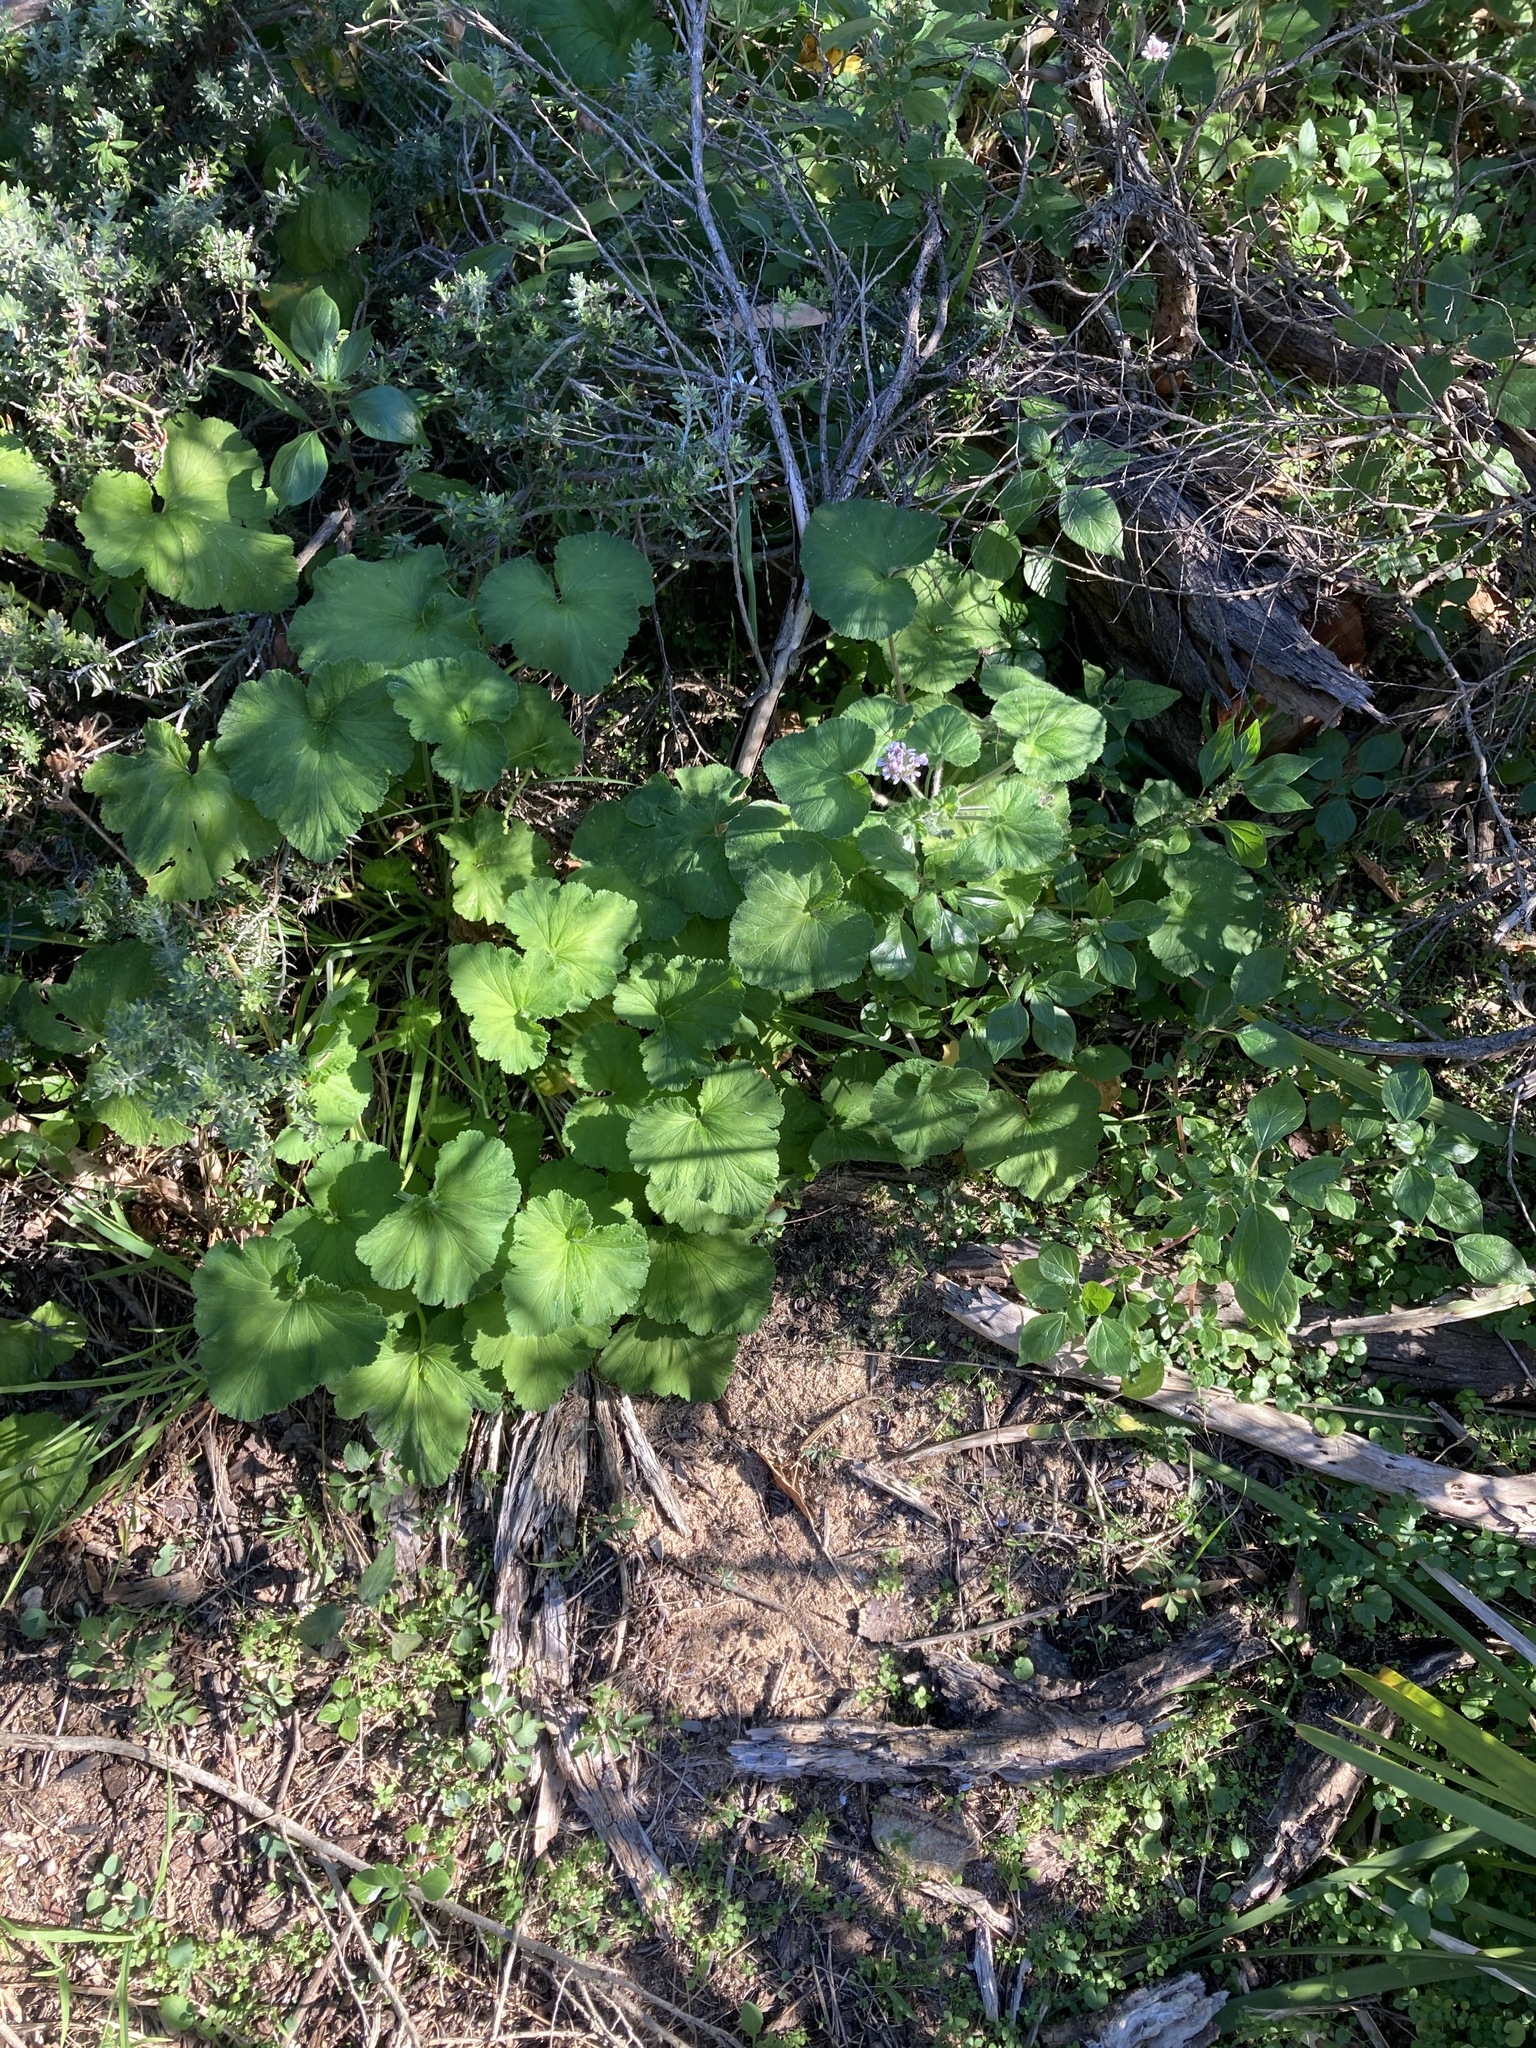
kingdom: Plantae
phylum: Tracheophyta
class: Magnoliopsida
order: Geraniales
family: Geraniaceae
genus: Pelargonium
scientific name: Pelargonium australe
